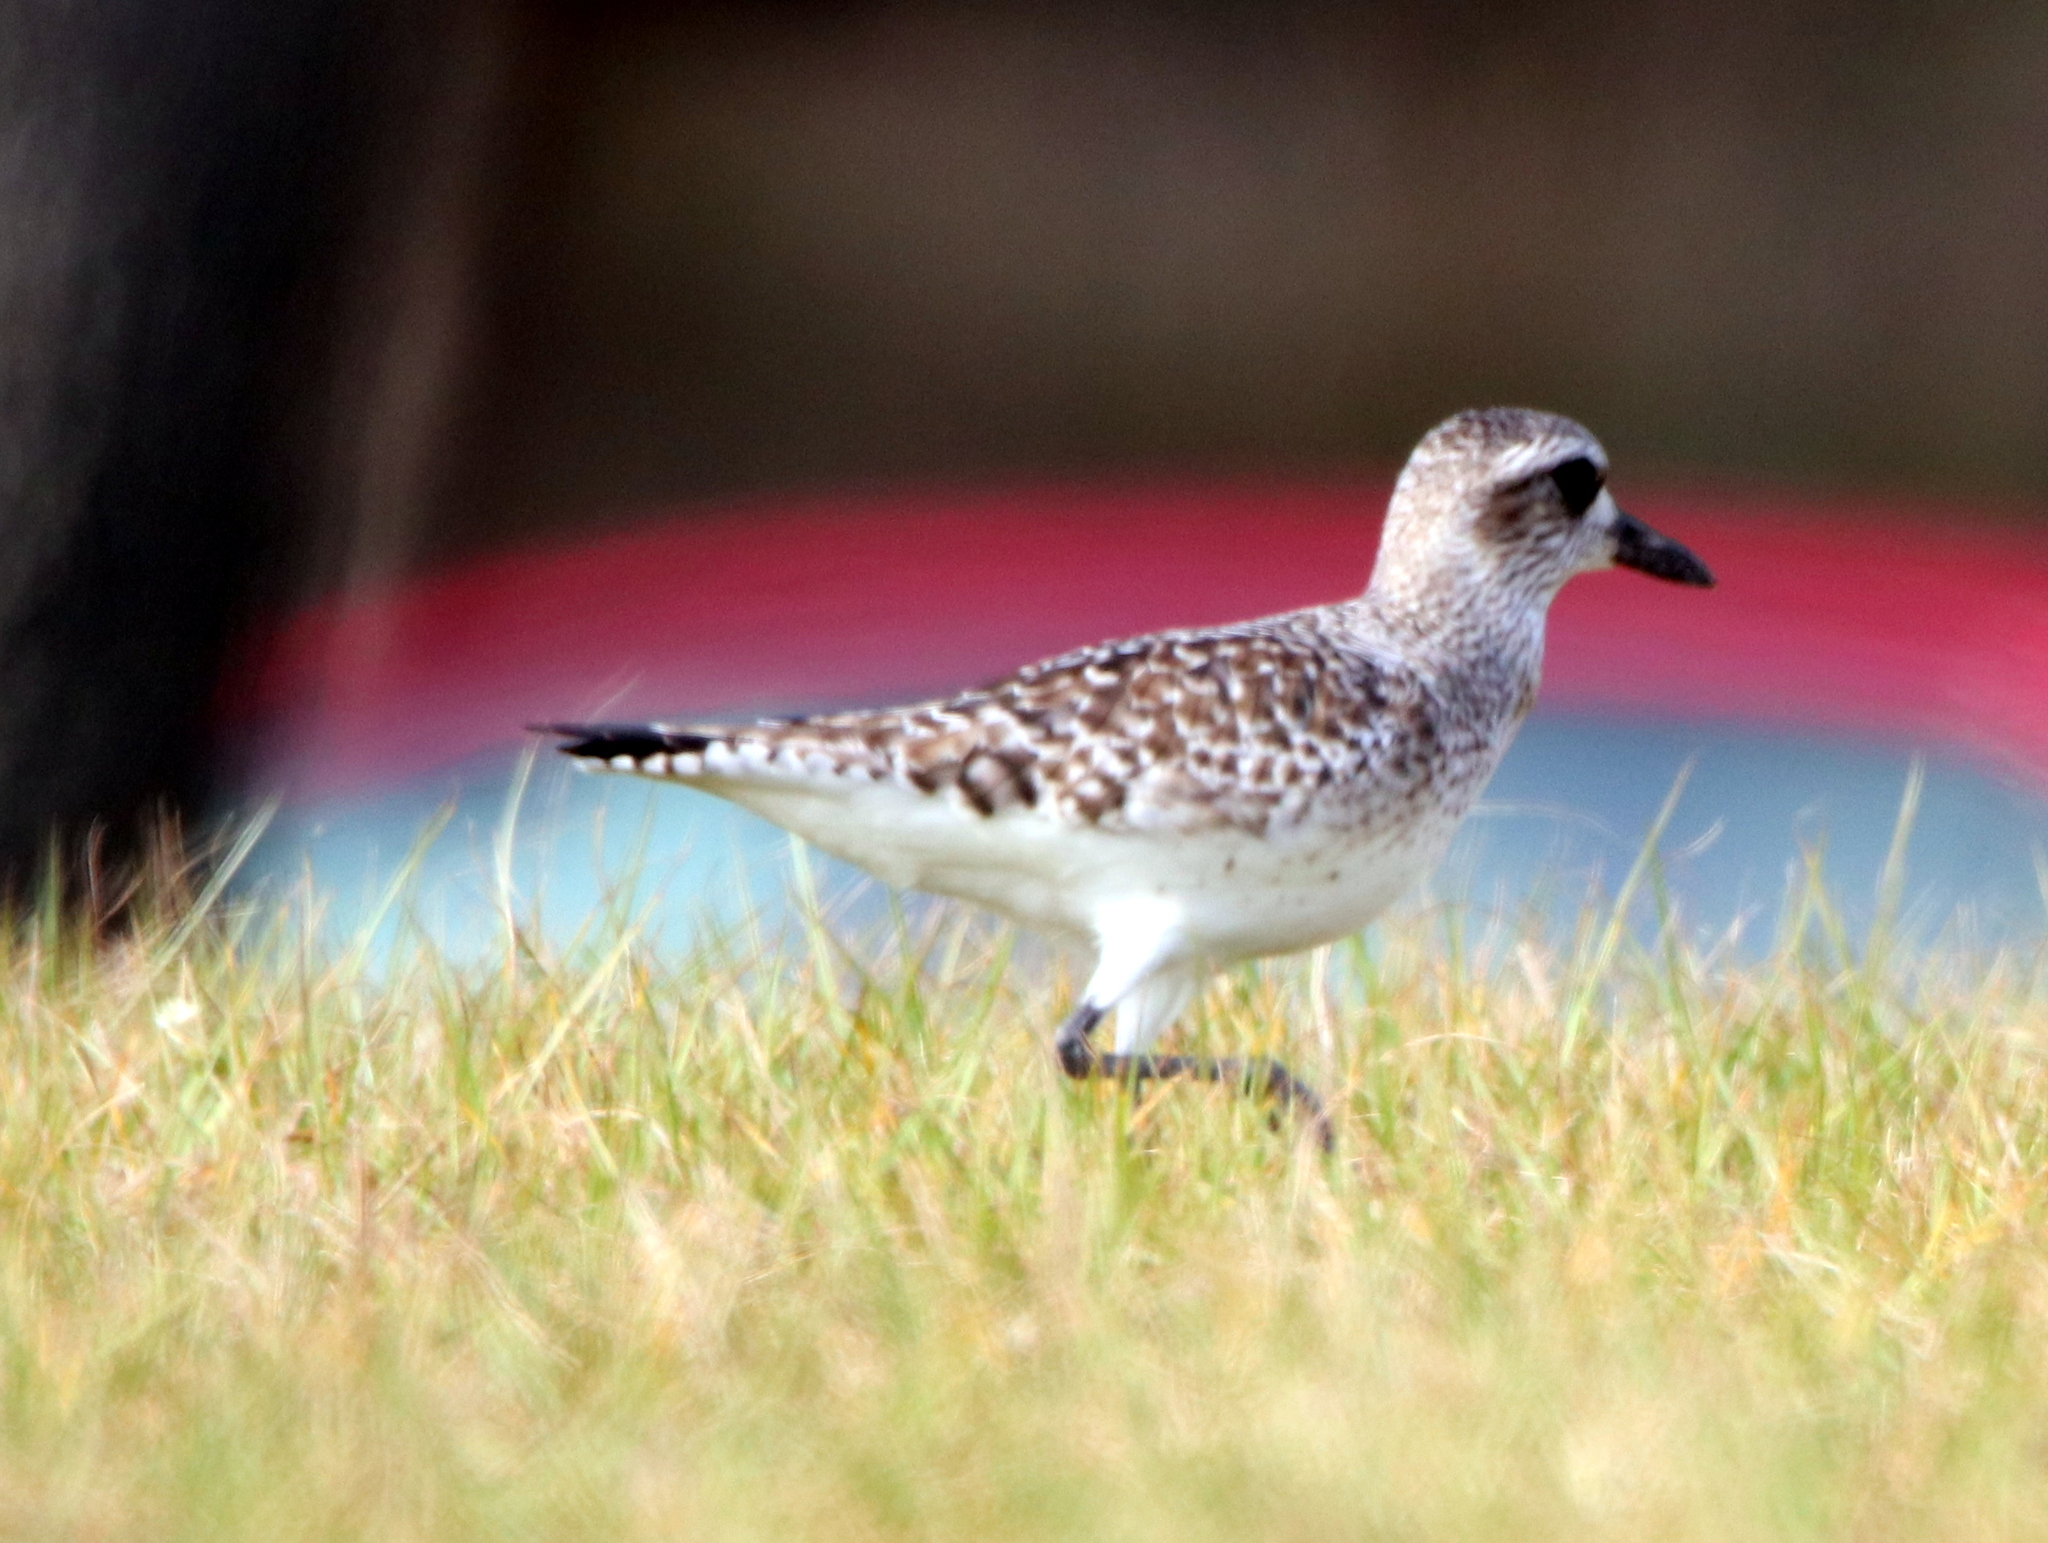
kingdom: Animalia
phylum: Chordata
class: Aves
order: Charadriiformes
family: Charadriidae
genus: Pluvialis
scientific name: Pluvialis squatarola
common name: Grey plover
